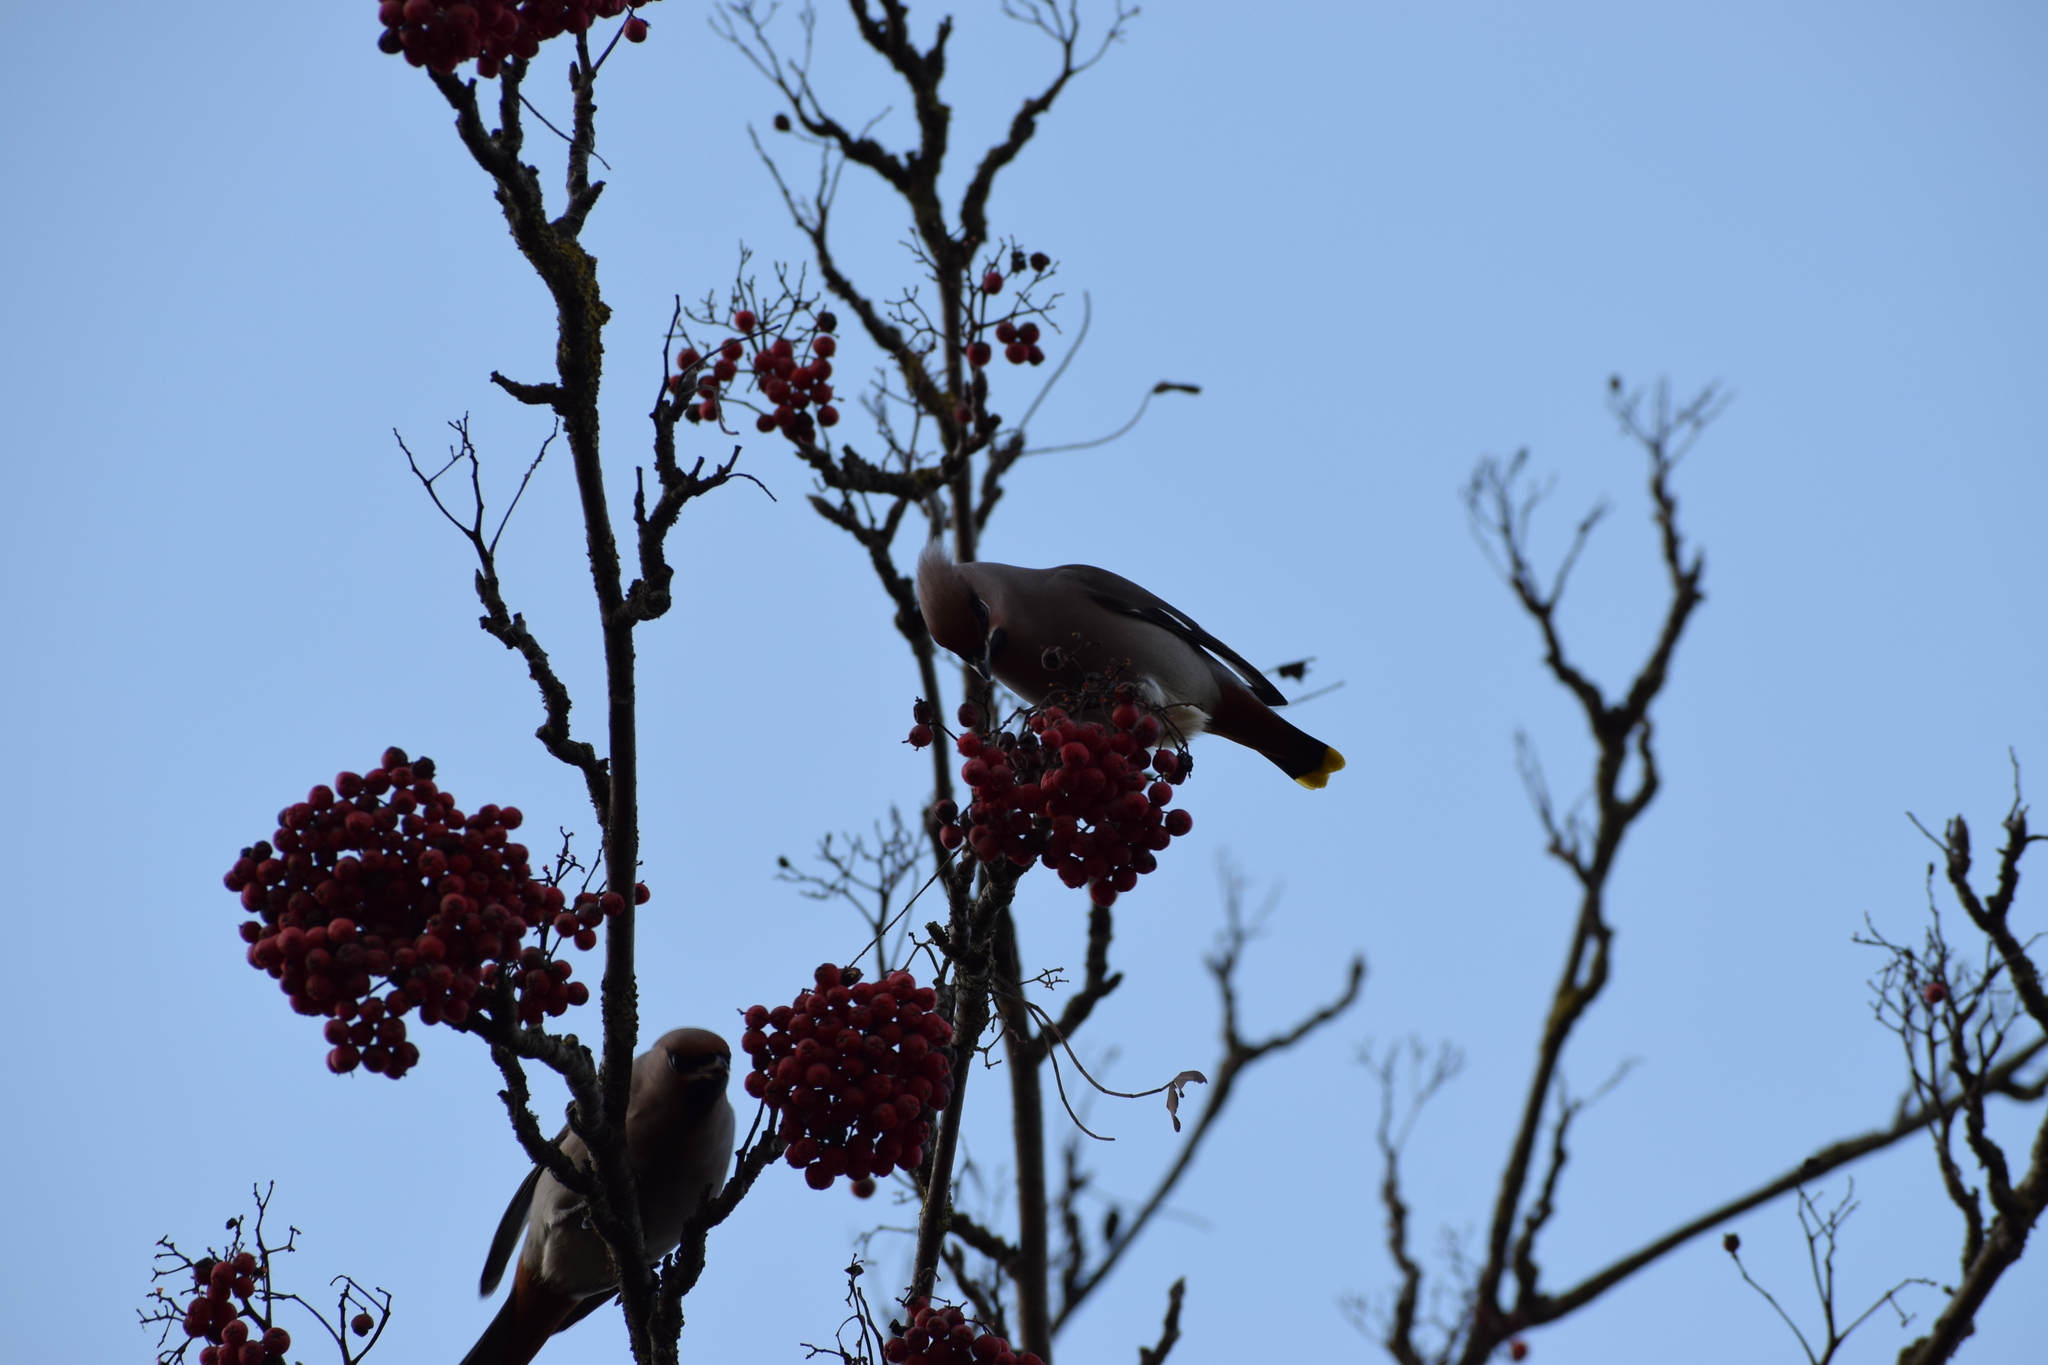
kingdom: Animalia
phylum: Chordata
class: Aves
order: Passeriformes
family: Bombycillidae
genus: Bombycilla
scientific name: Bombycilla garrulus
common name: Bohemian waxwing
